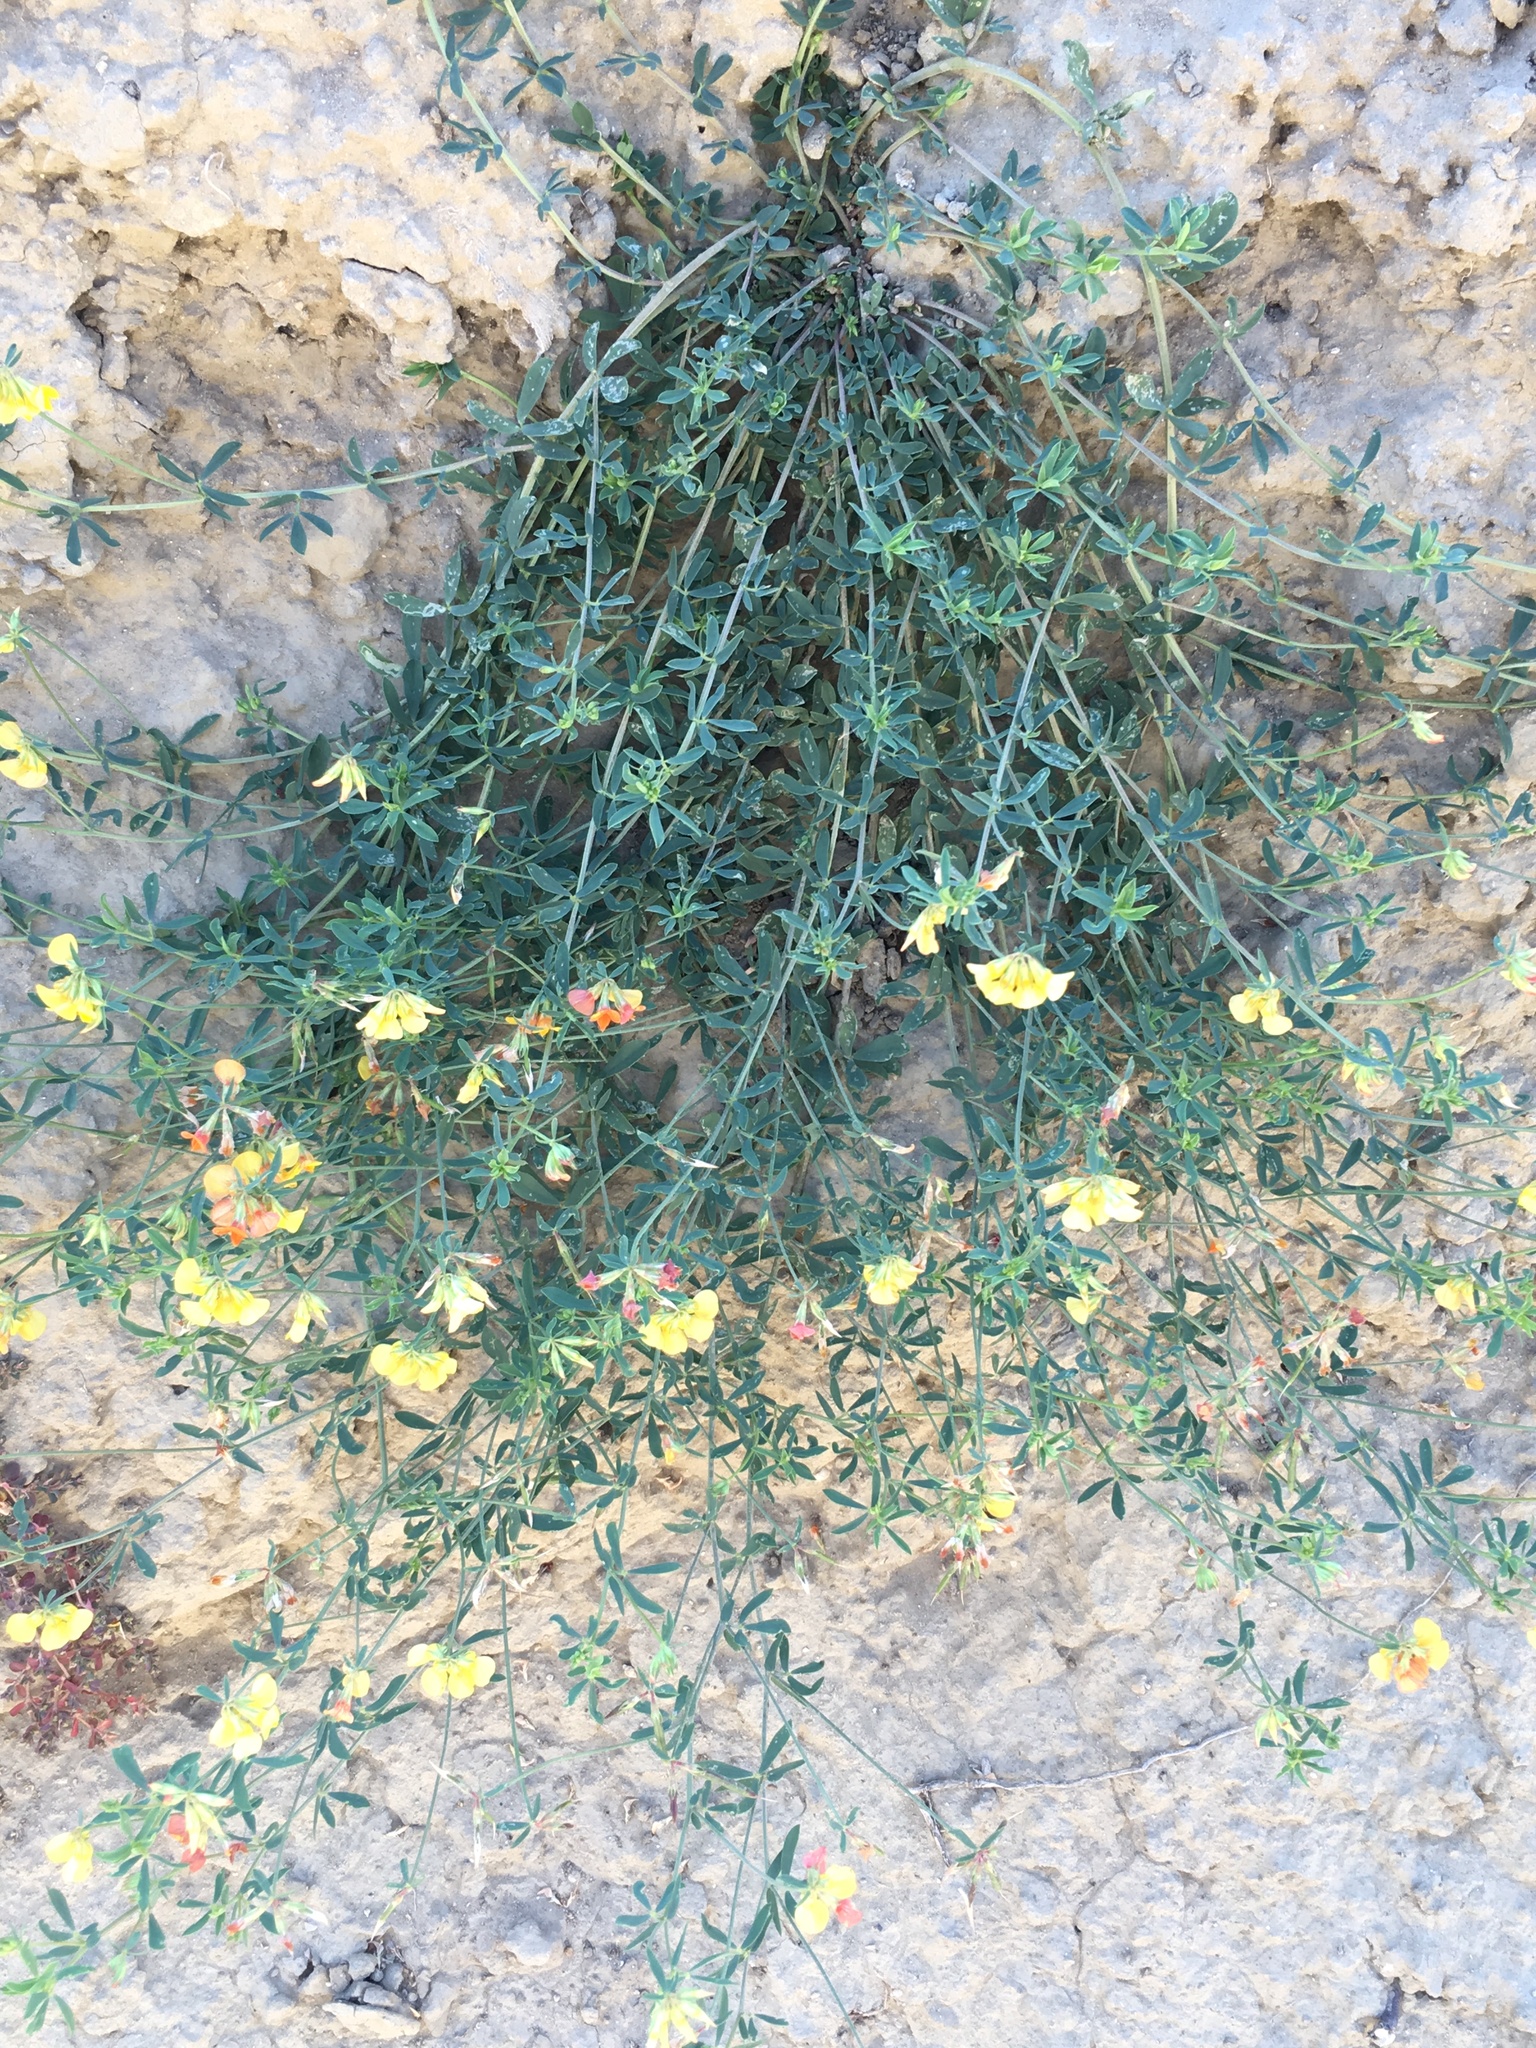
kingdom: Plantae
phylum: Tracheophyta
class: Magnoliopsida
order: Fabales
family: Fabaceae
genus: Lotus
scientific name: Lotus corniculatus
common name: Common bird's-foot-trefoil
